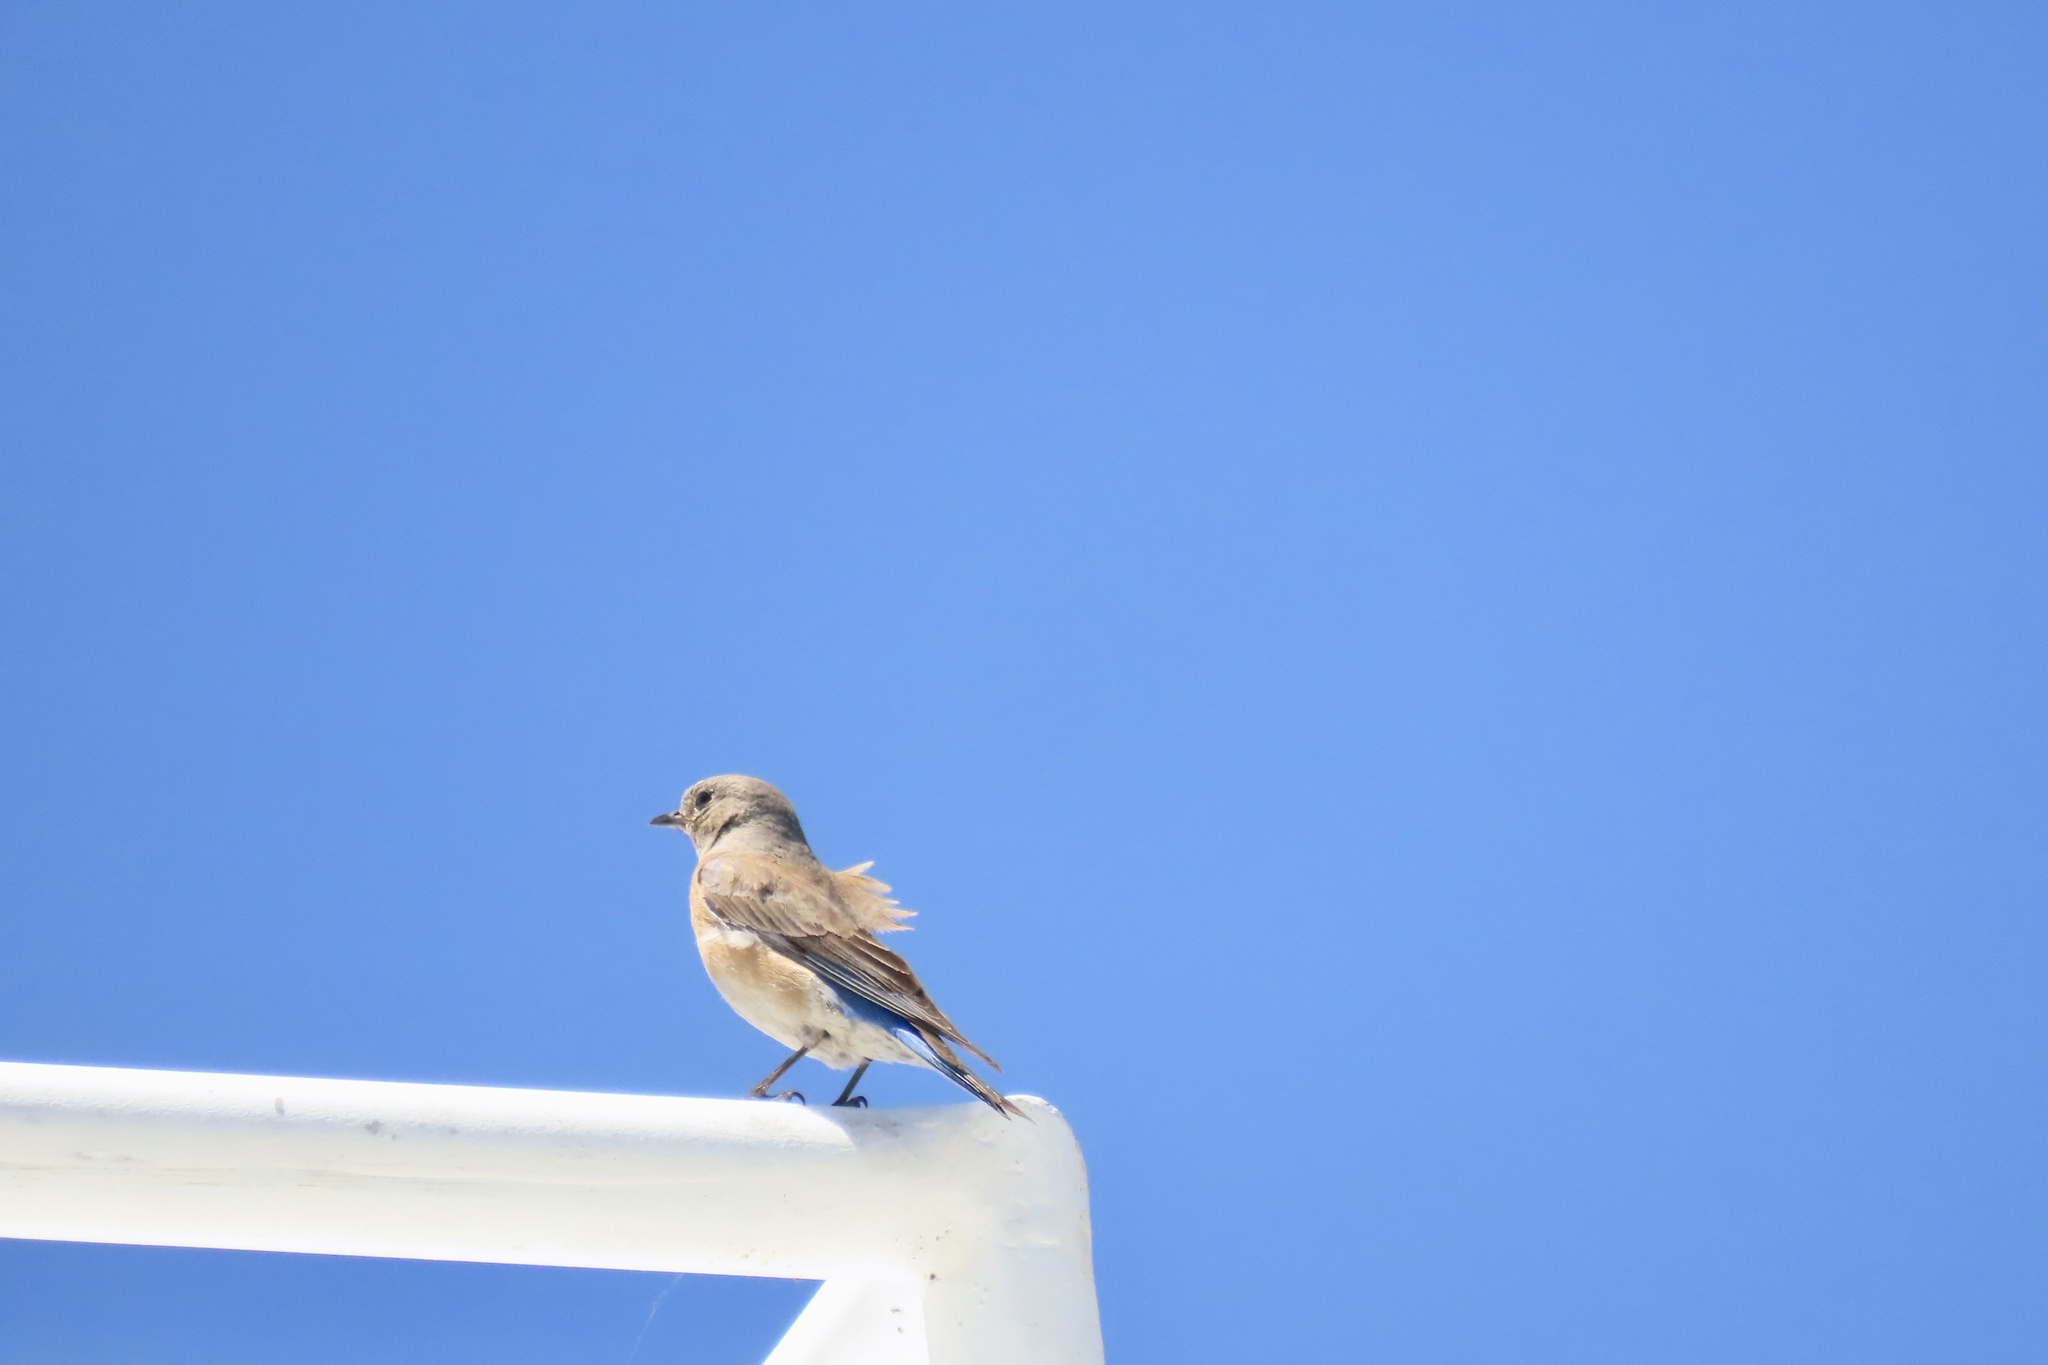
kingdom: Animalia
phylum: Chordata
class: Aves
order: Passeriformes
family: Turdidae
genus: Sialia
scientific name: Sialia mexicana
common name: Western bluebird
